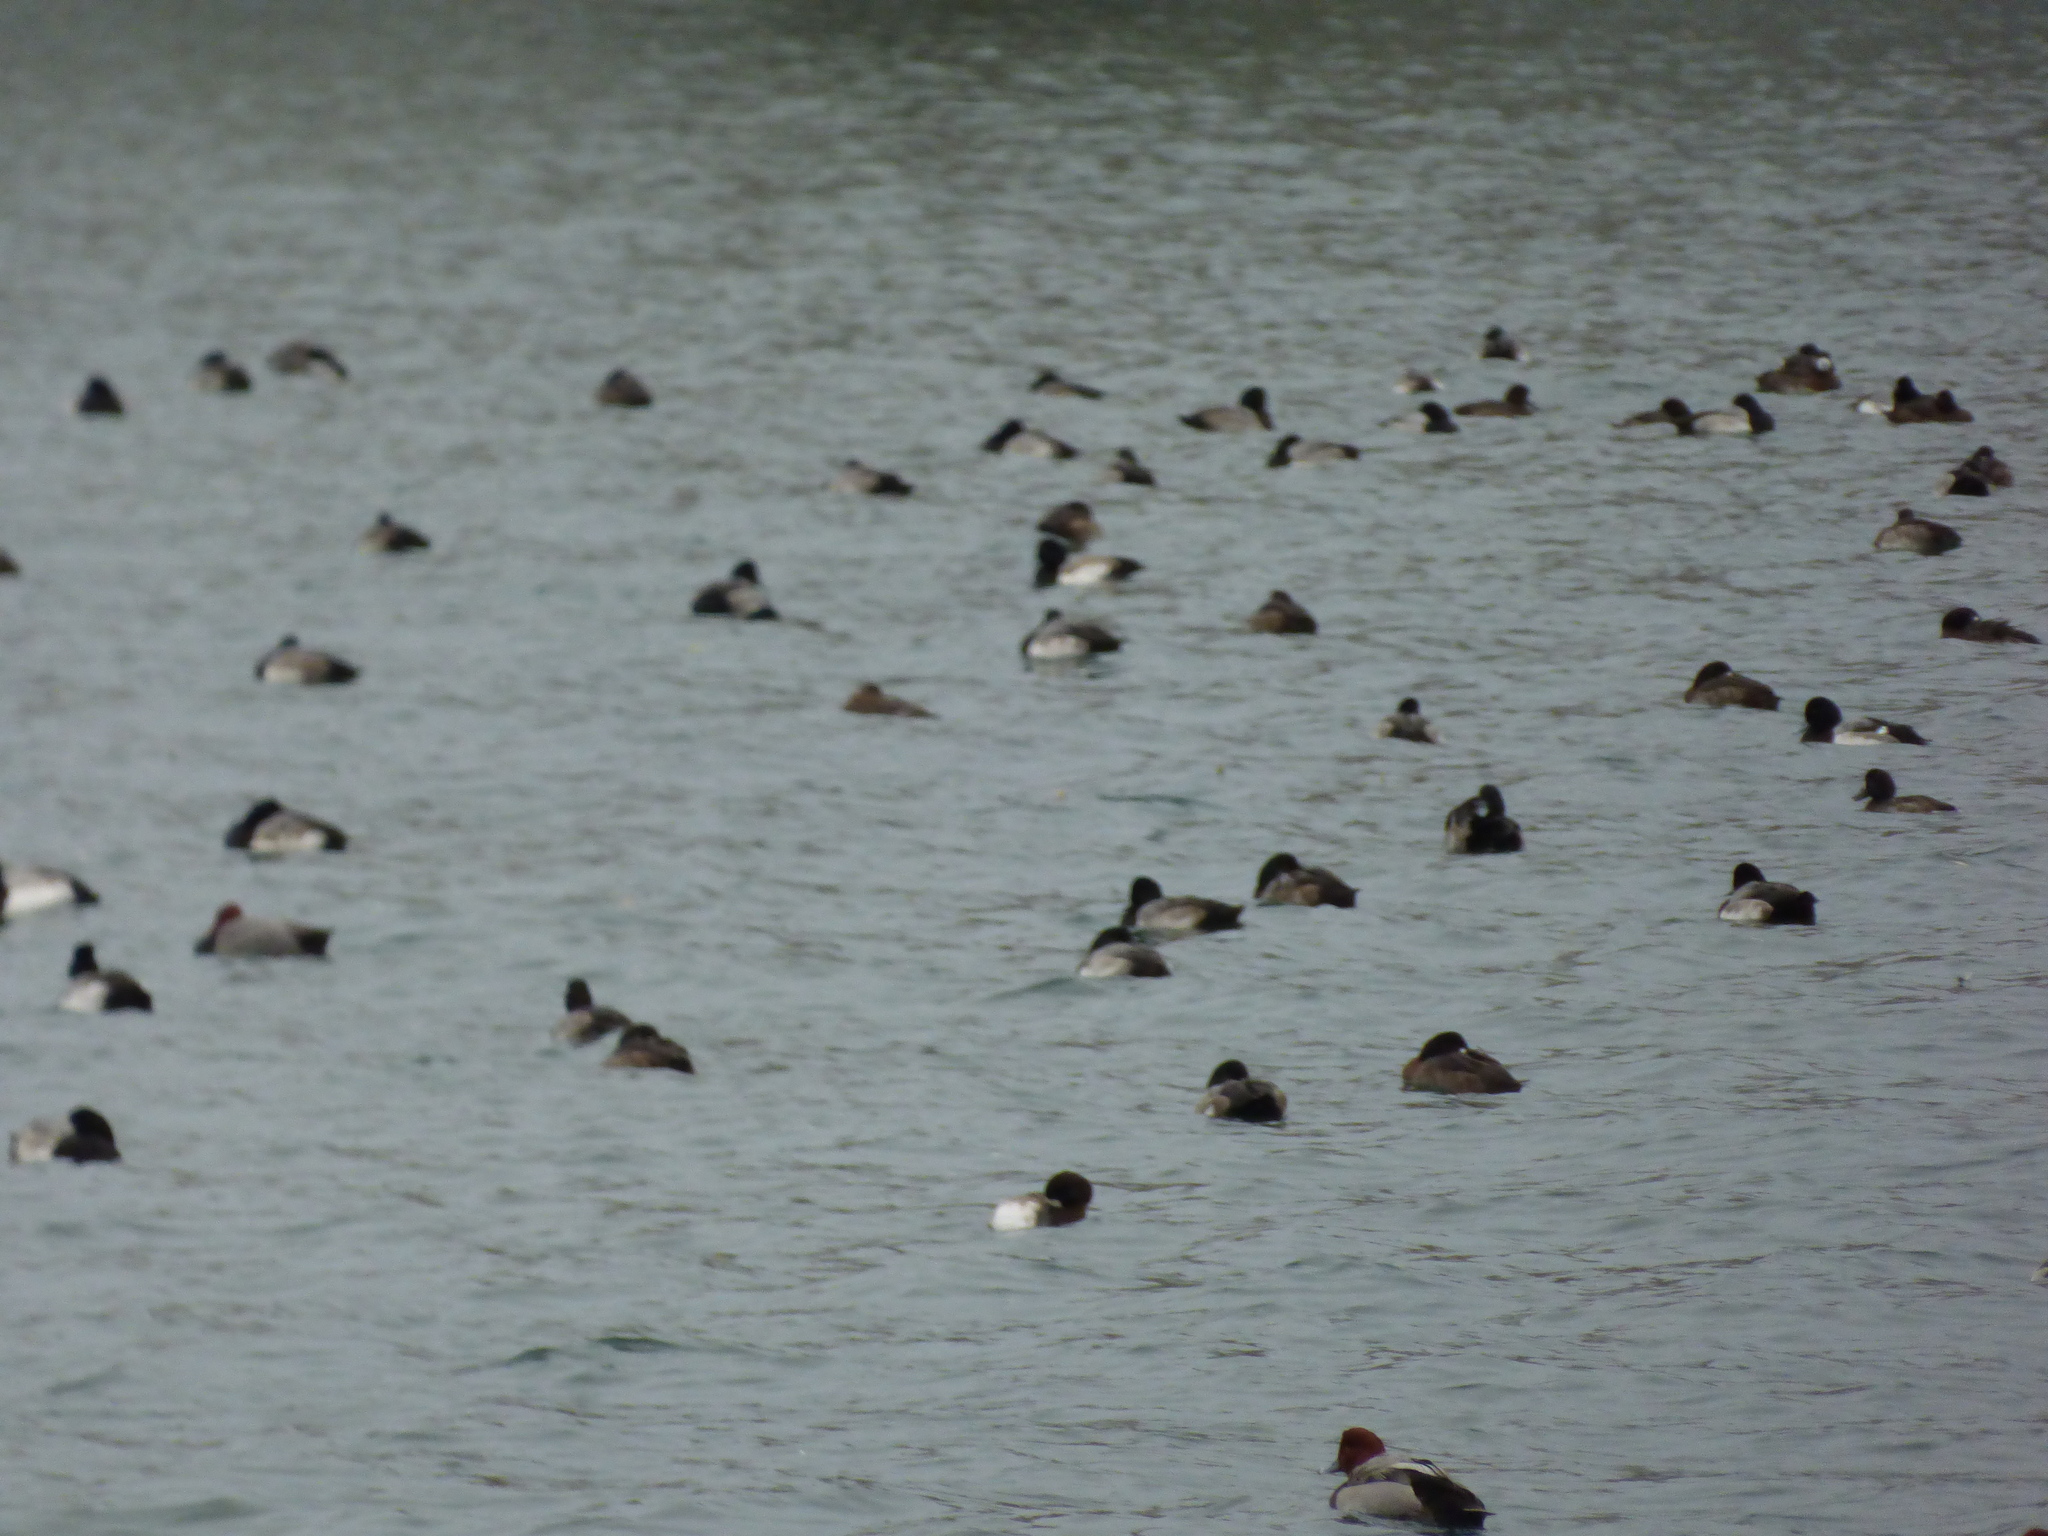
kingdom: Animalia
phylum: Chordata
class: Aves
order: Anseriformes
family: Anatidae
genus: Aythya
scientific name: Aythya marila
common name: Greater scaup
